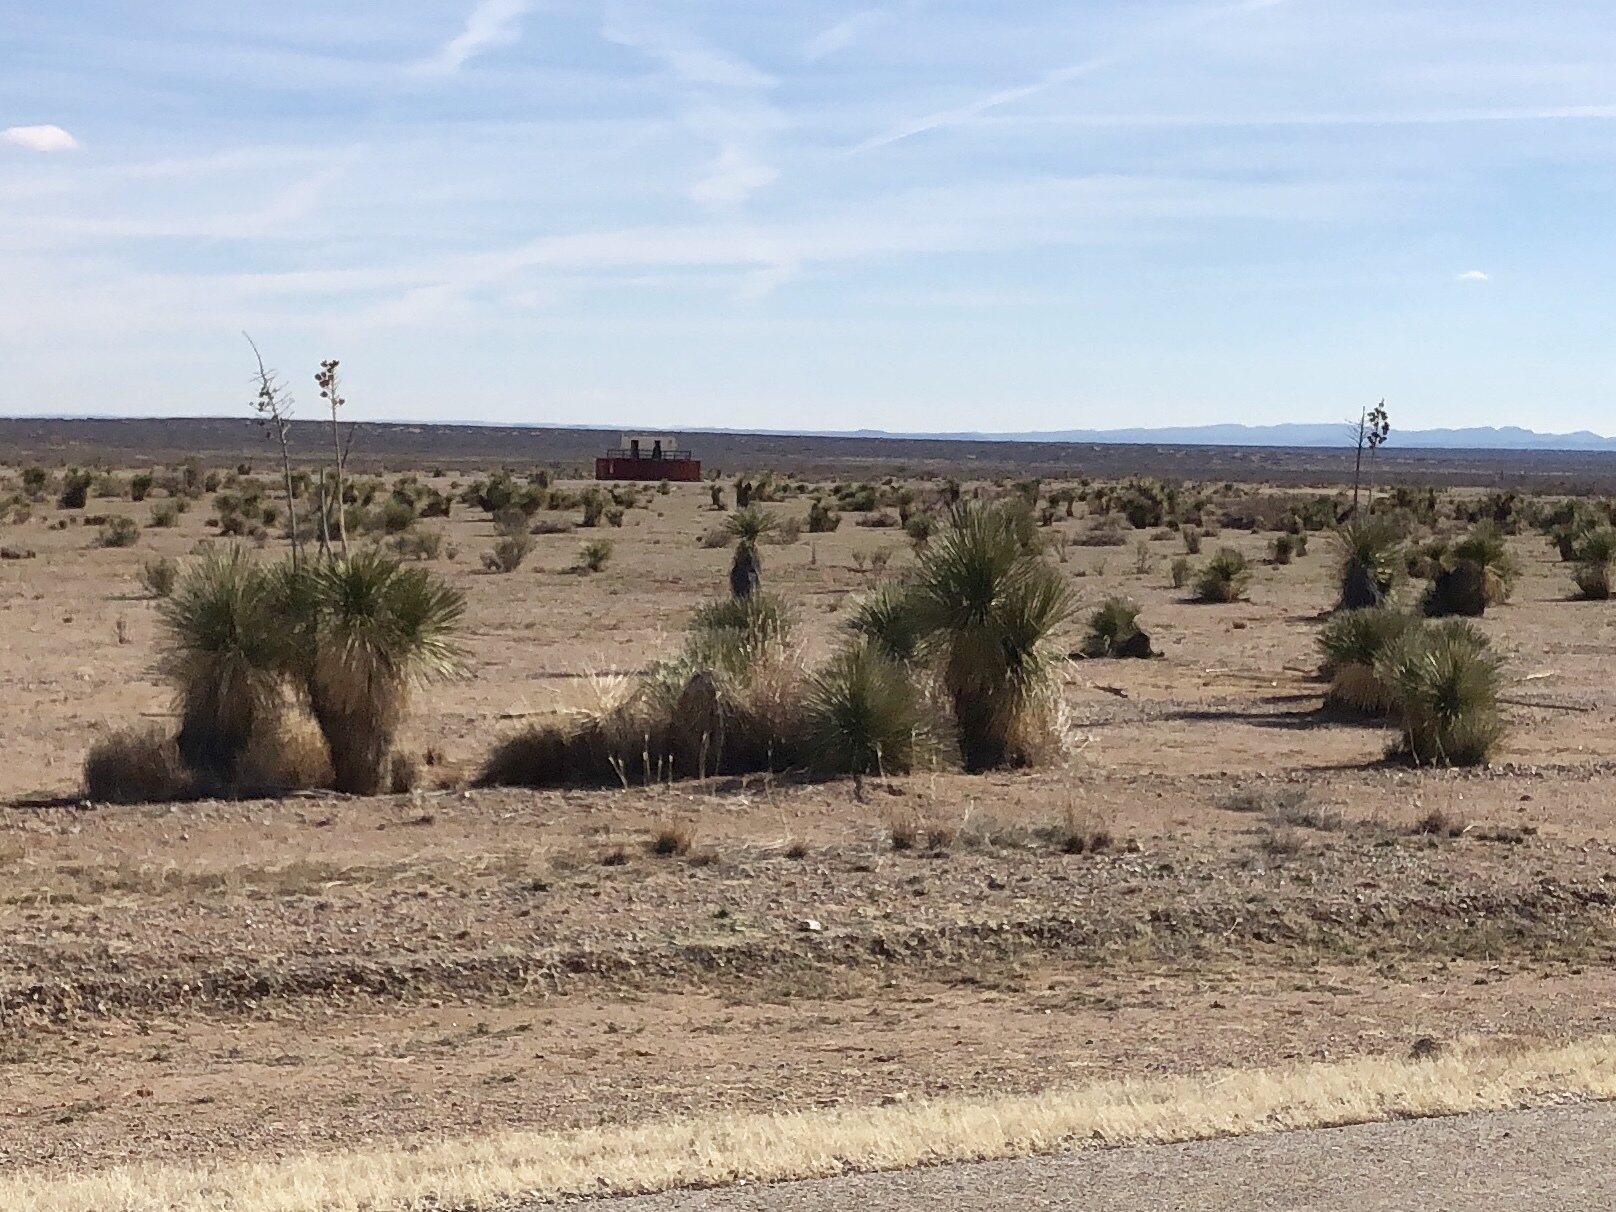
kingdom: Plantae
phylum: Tracheophyta
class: Liliopsida
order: Asparagales
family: Asparagaceae
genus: Yucca
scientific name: Yucca elata
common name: Palmella
